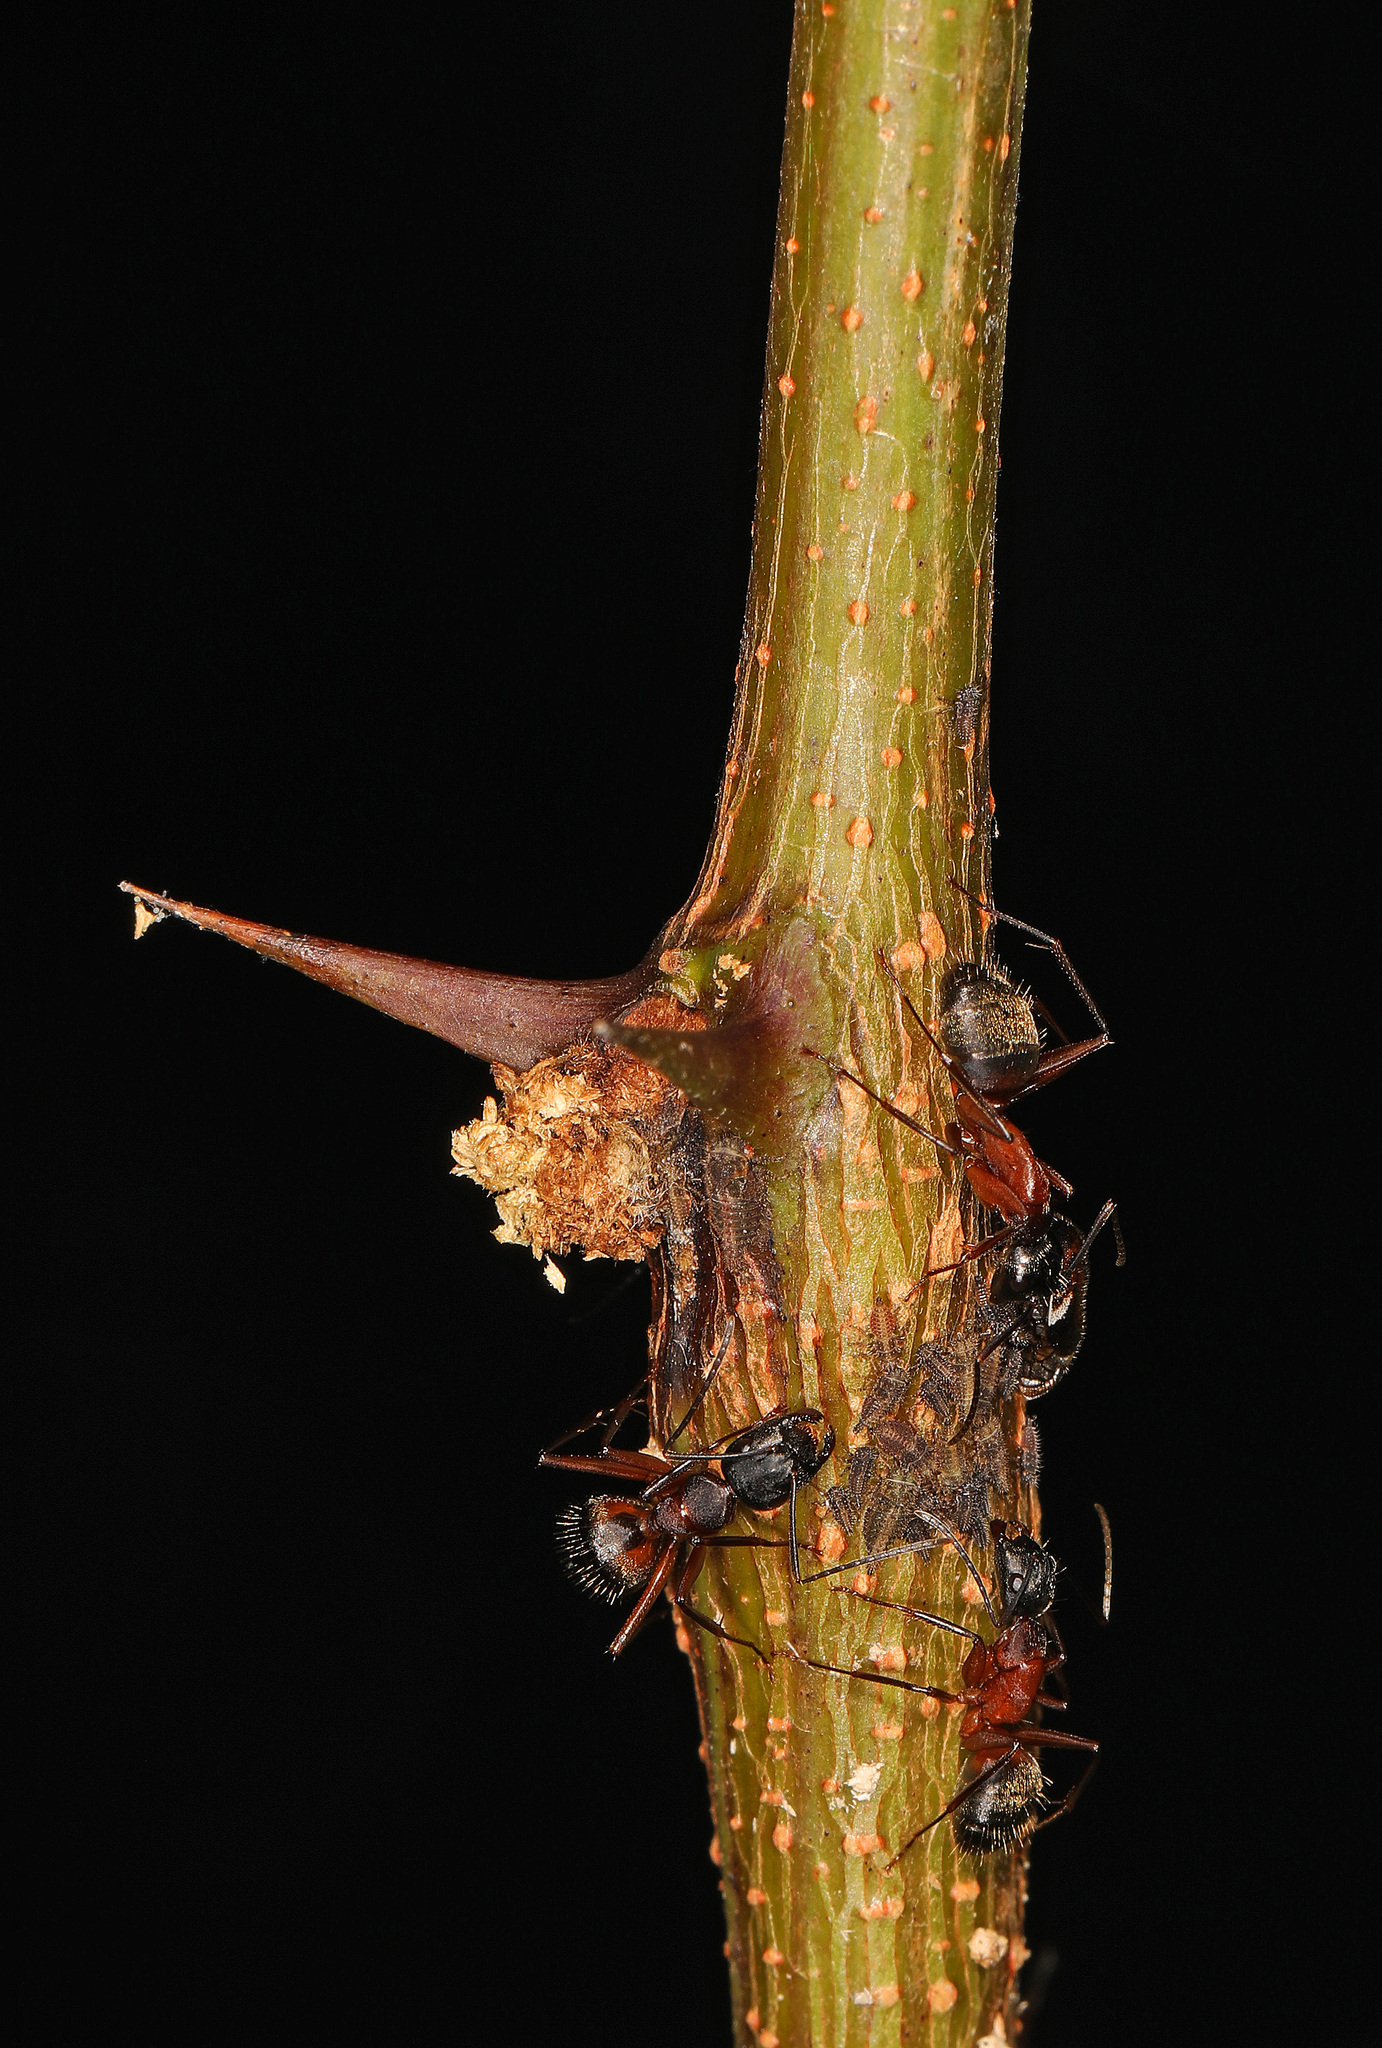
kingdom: Animalia
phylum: Arthropoda
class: Insecta
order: Hymenoptera
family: Formicidae
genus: Camponotus
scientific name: Camponotus chromaiodes
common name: Red carpenter ant
